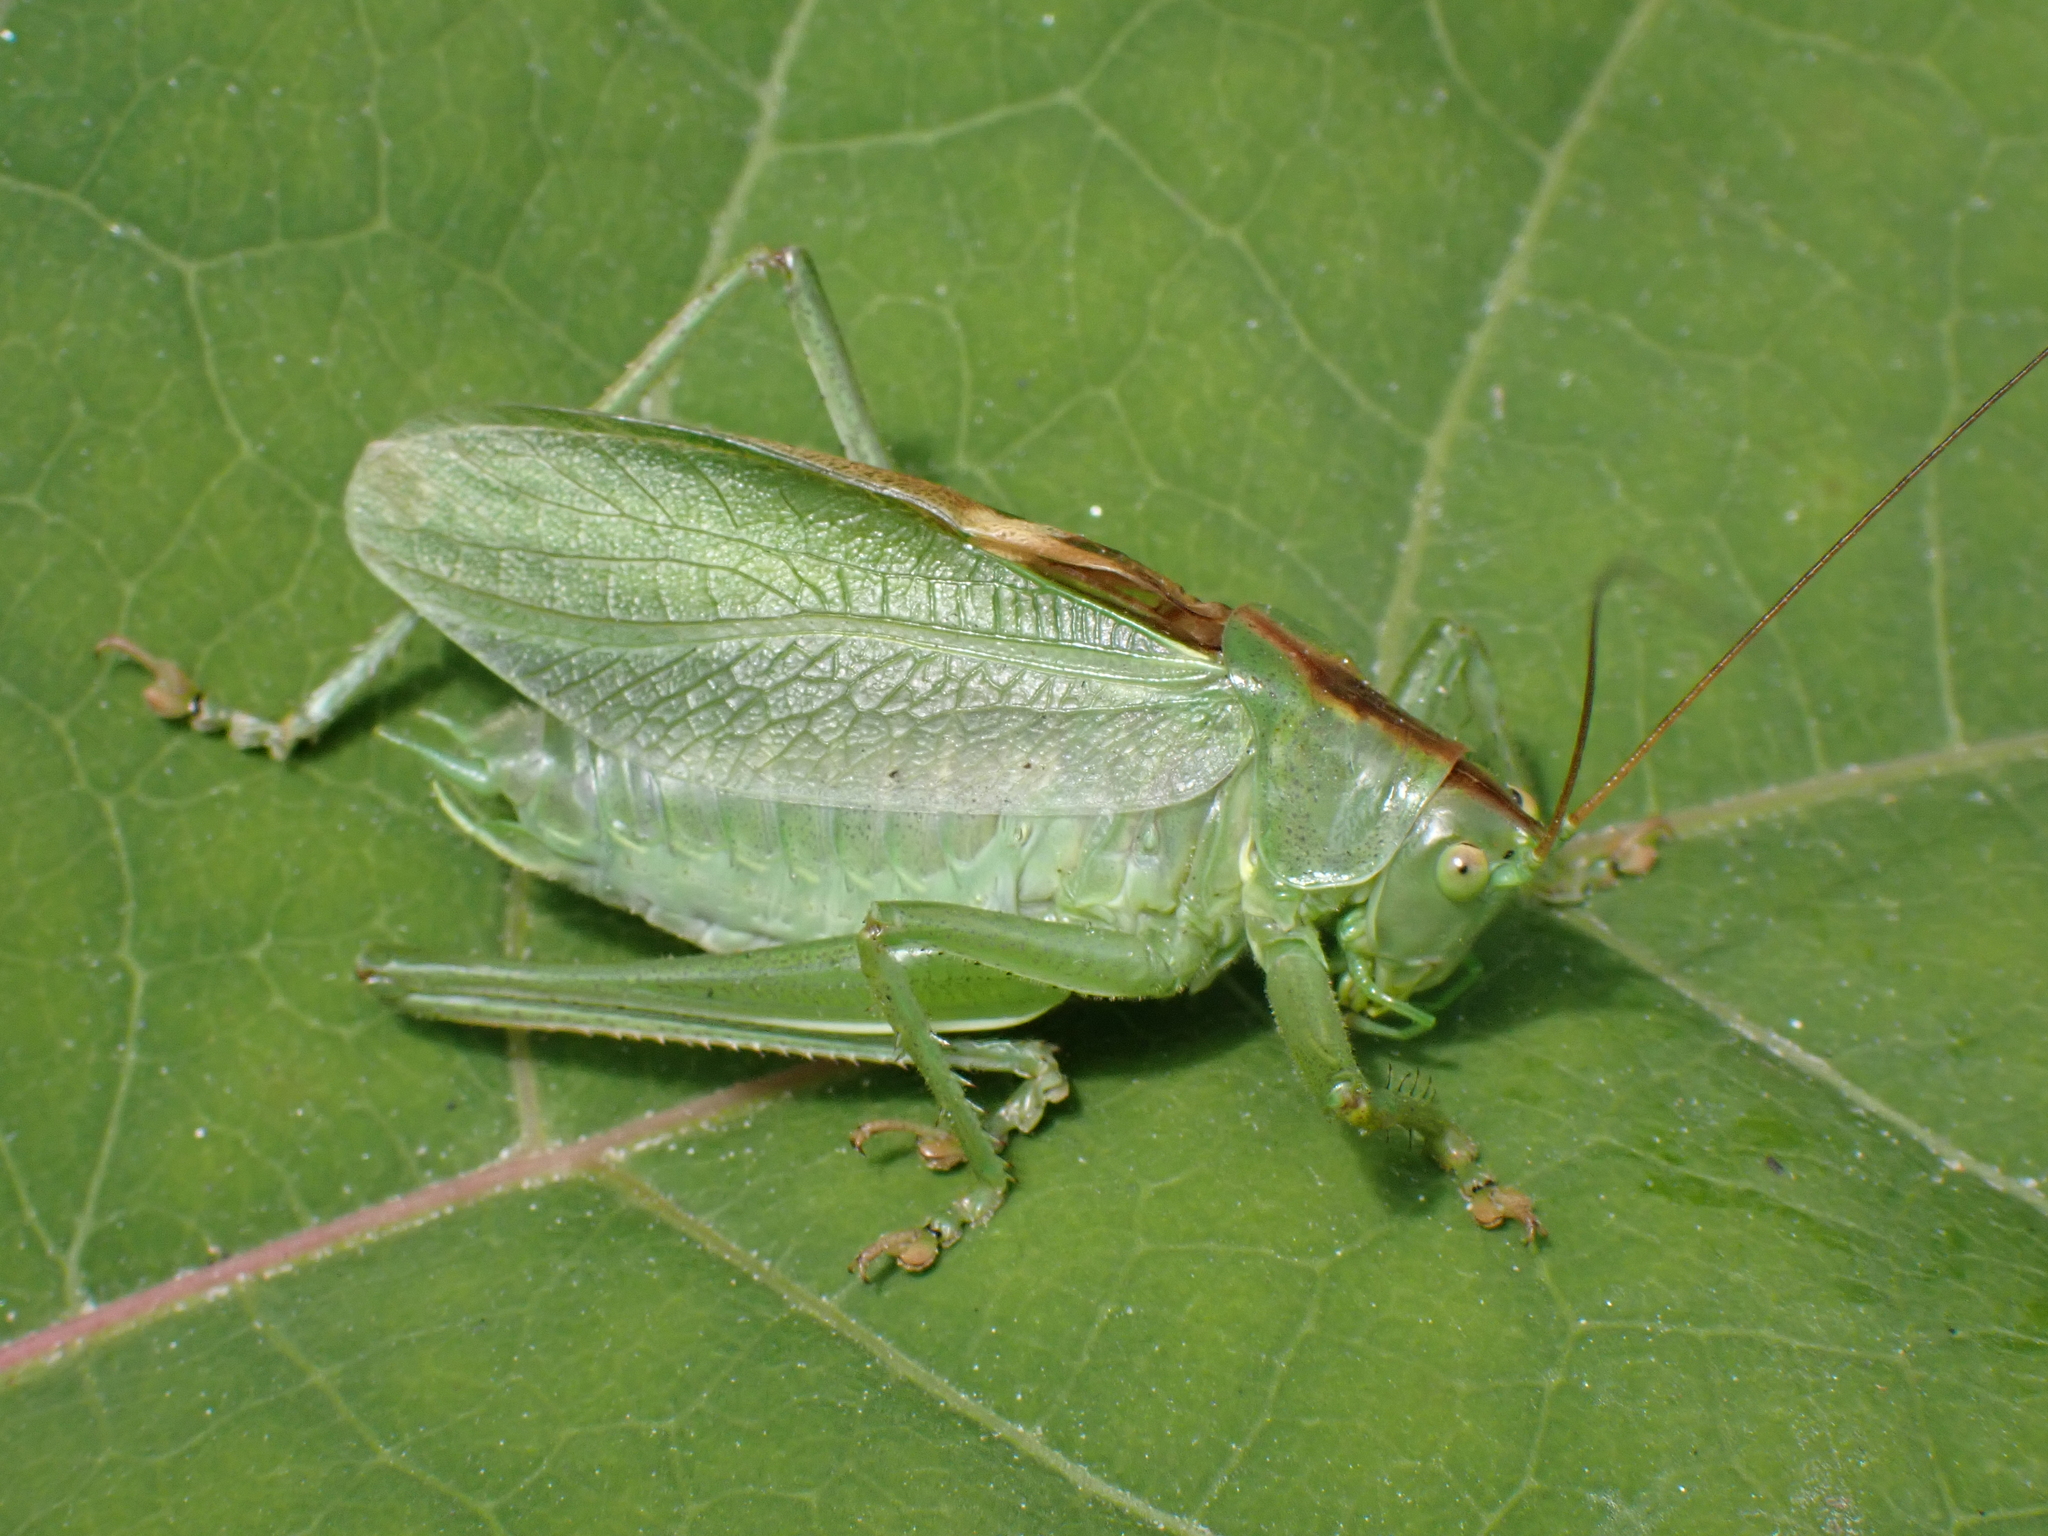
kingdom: Animalia
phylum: Arthropoda
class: Insecta
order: Orthoptera
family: Tettigoniidae
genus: Tettigonia
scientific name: Tettigonia cantans
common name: Upland green bush-cricket
